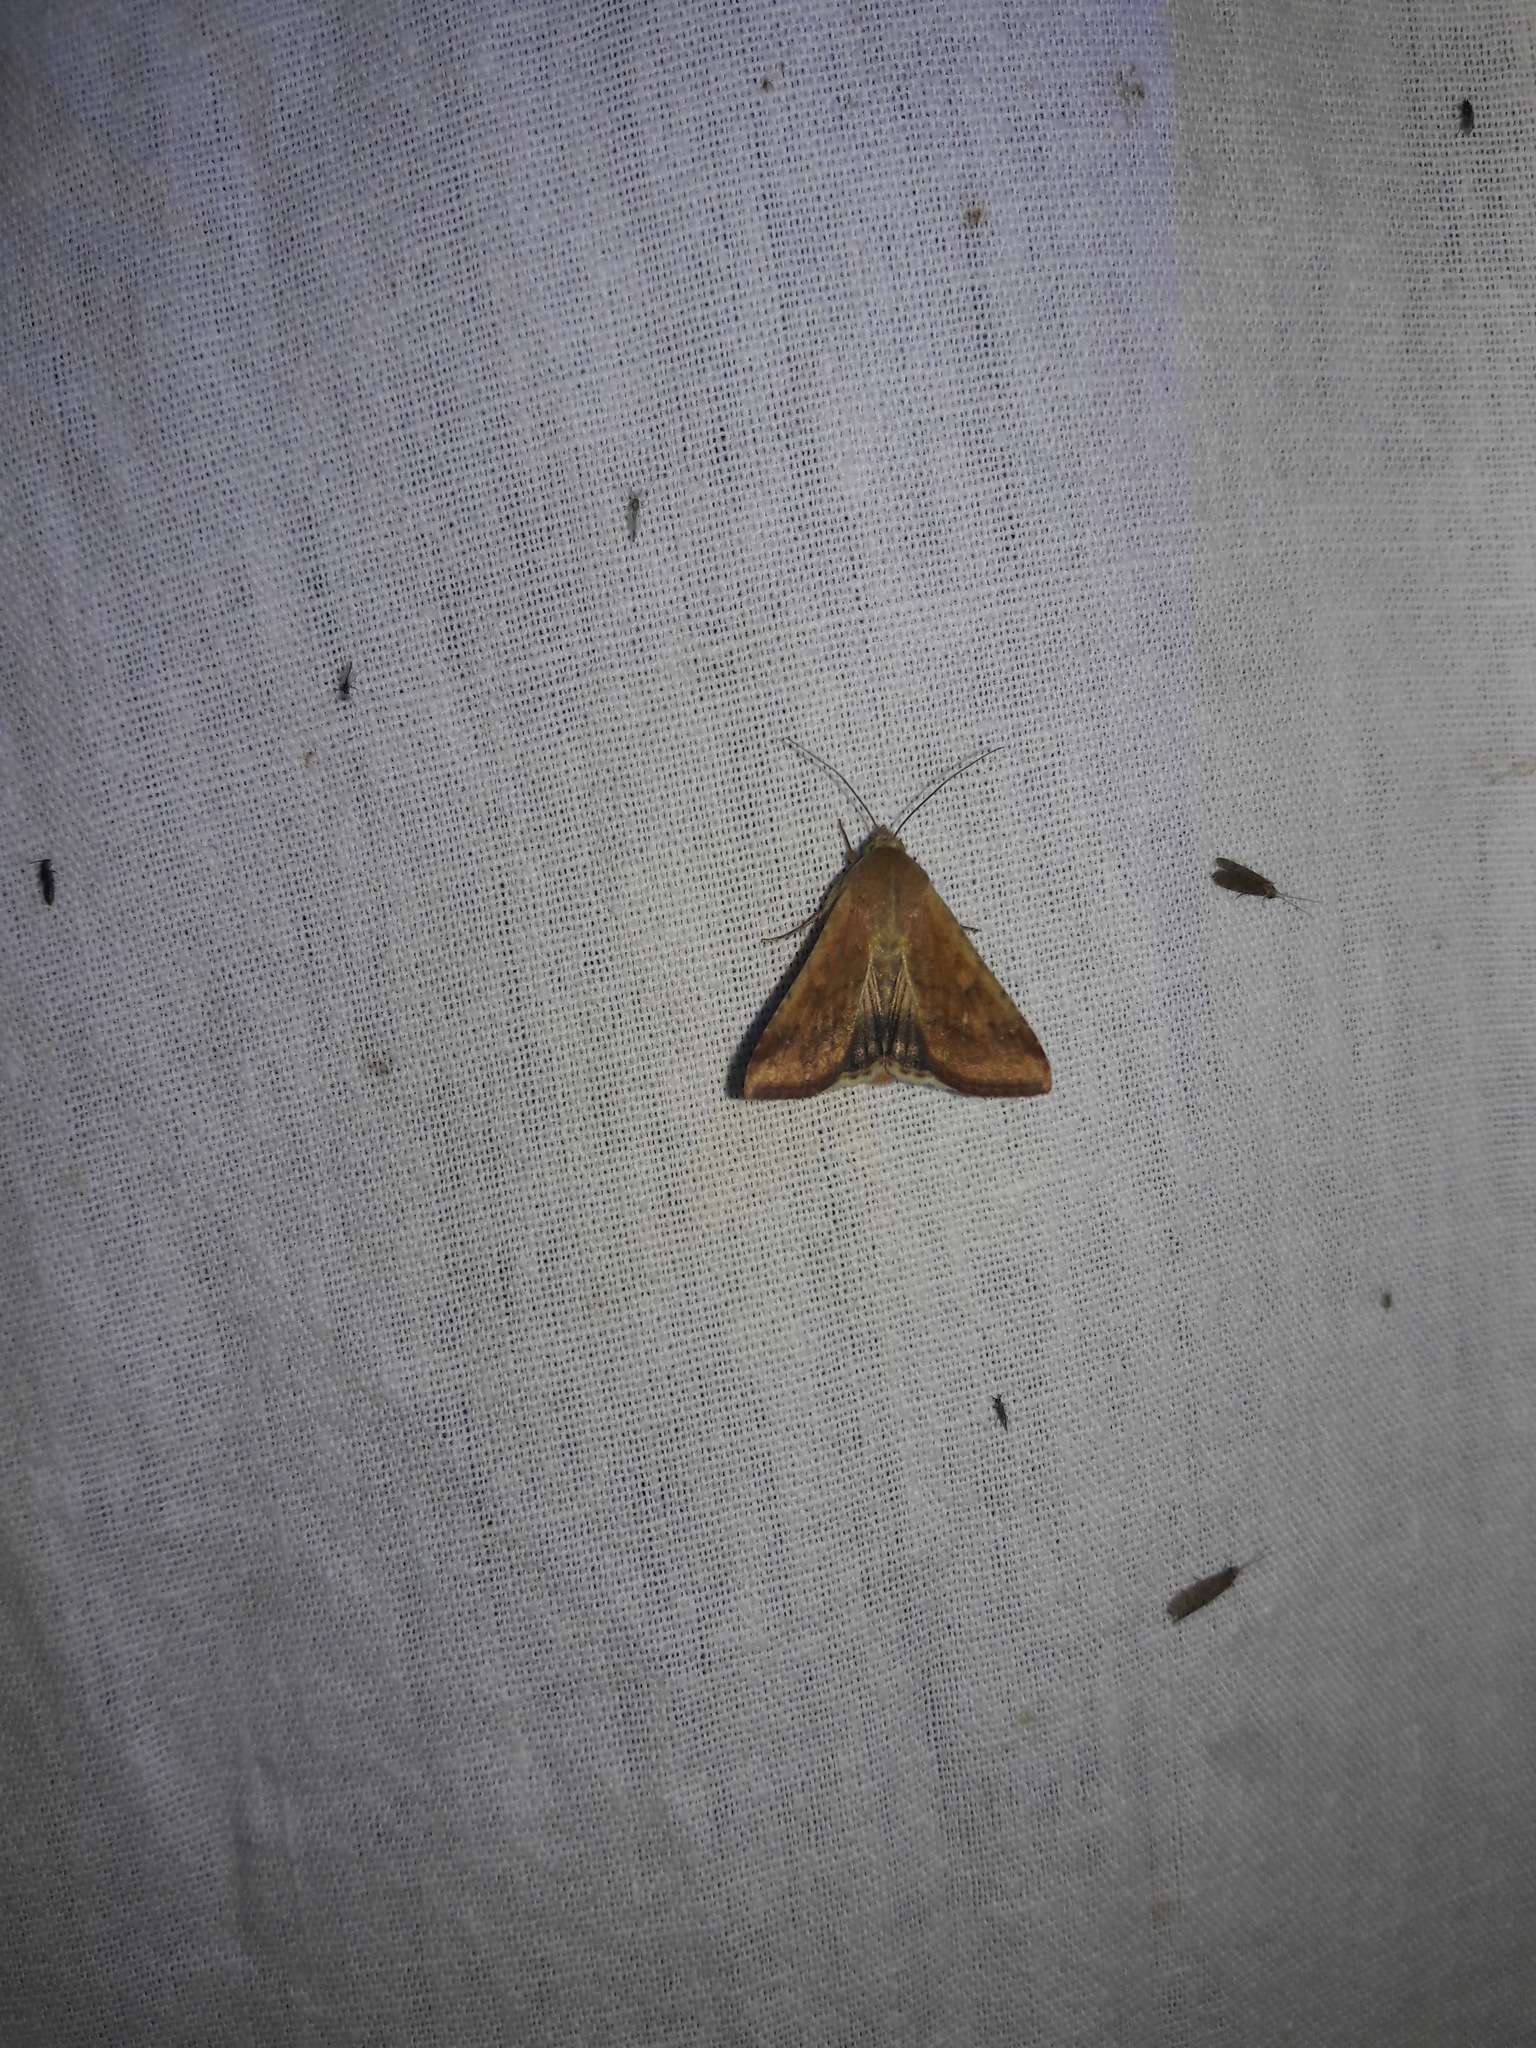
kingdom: Animalia
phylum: Arthropoda
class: Insecta
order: Lepidoptera
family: Noctuidae
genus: Helicoverpa
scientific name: Helicoverpa armigera
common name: Cotton bollworm
